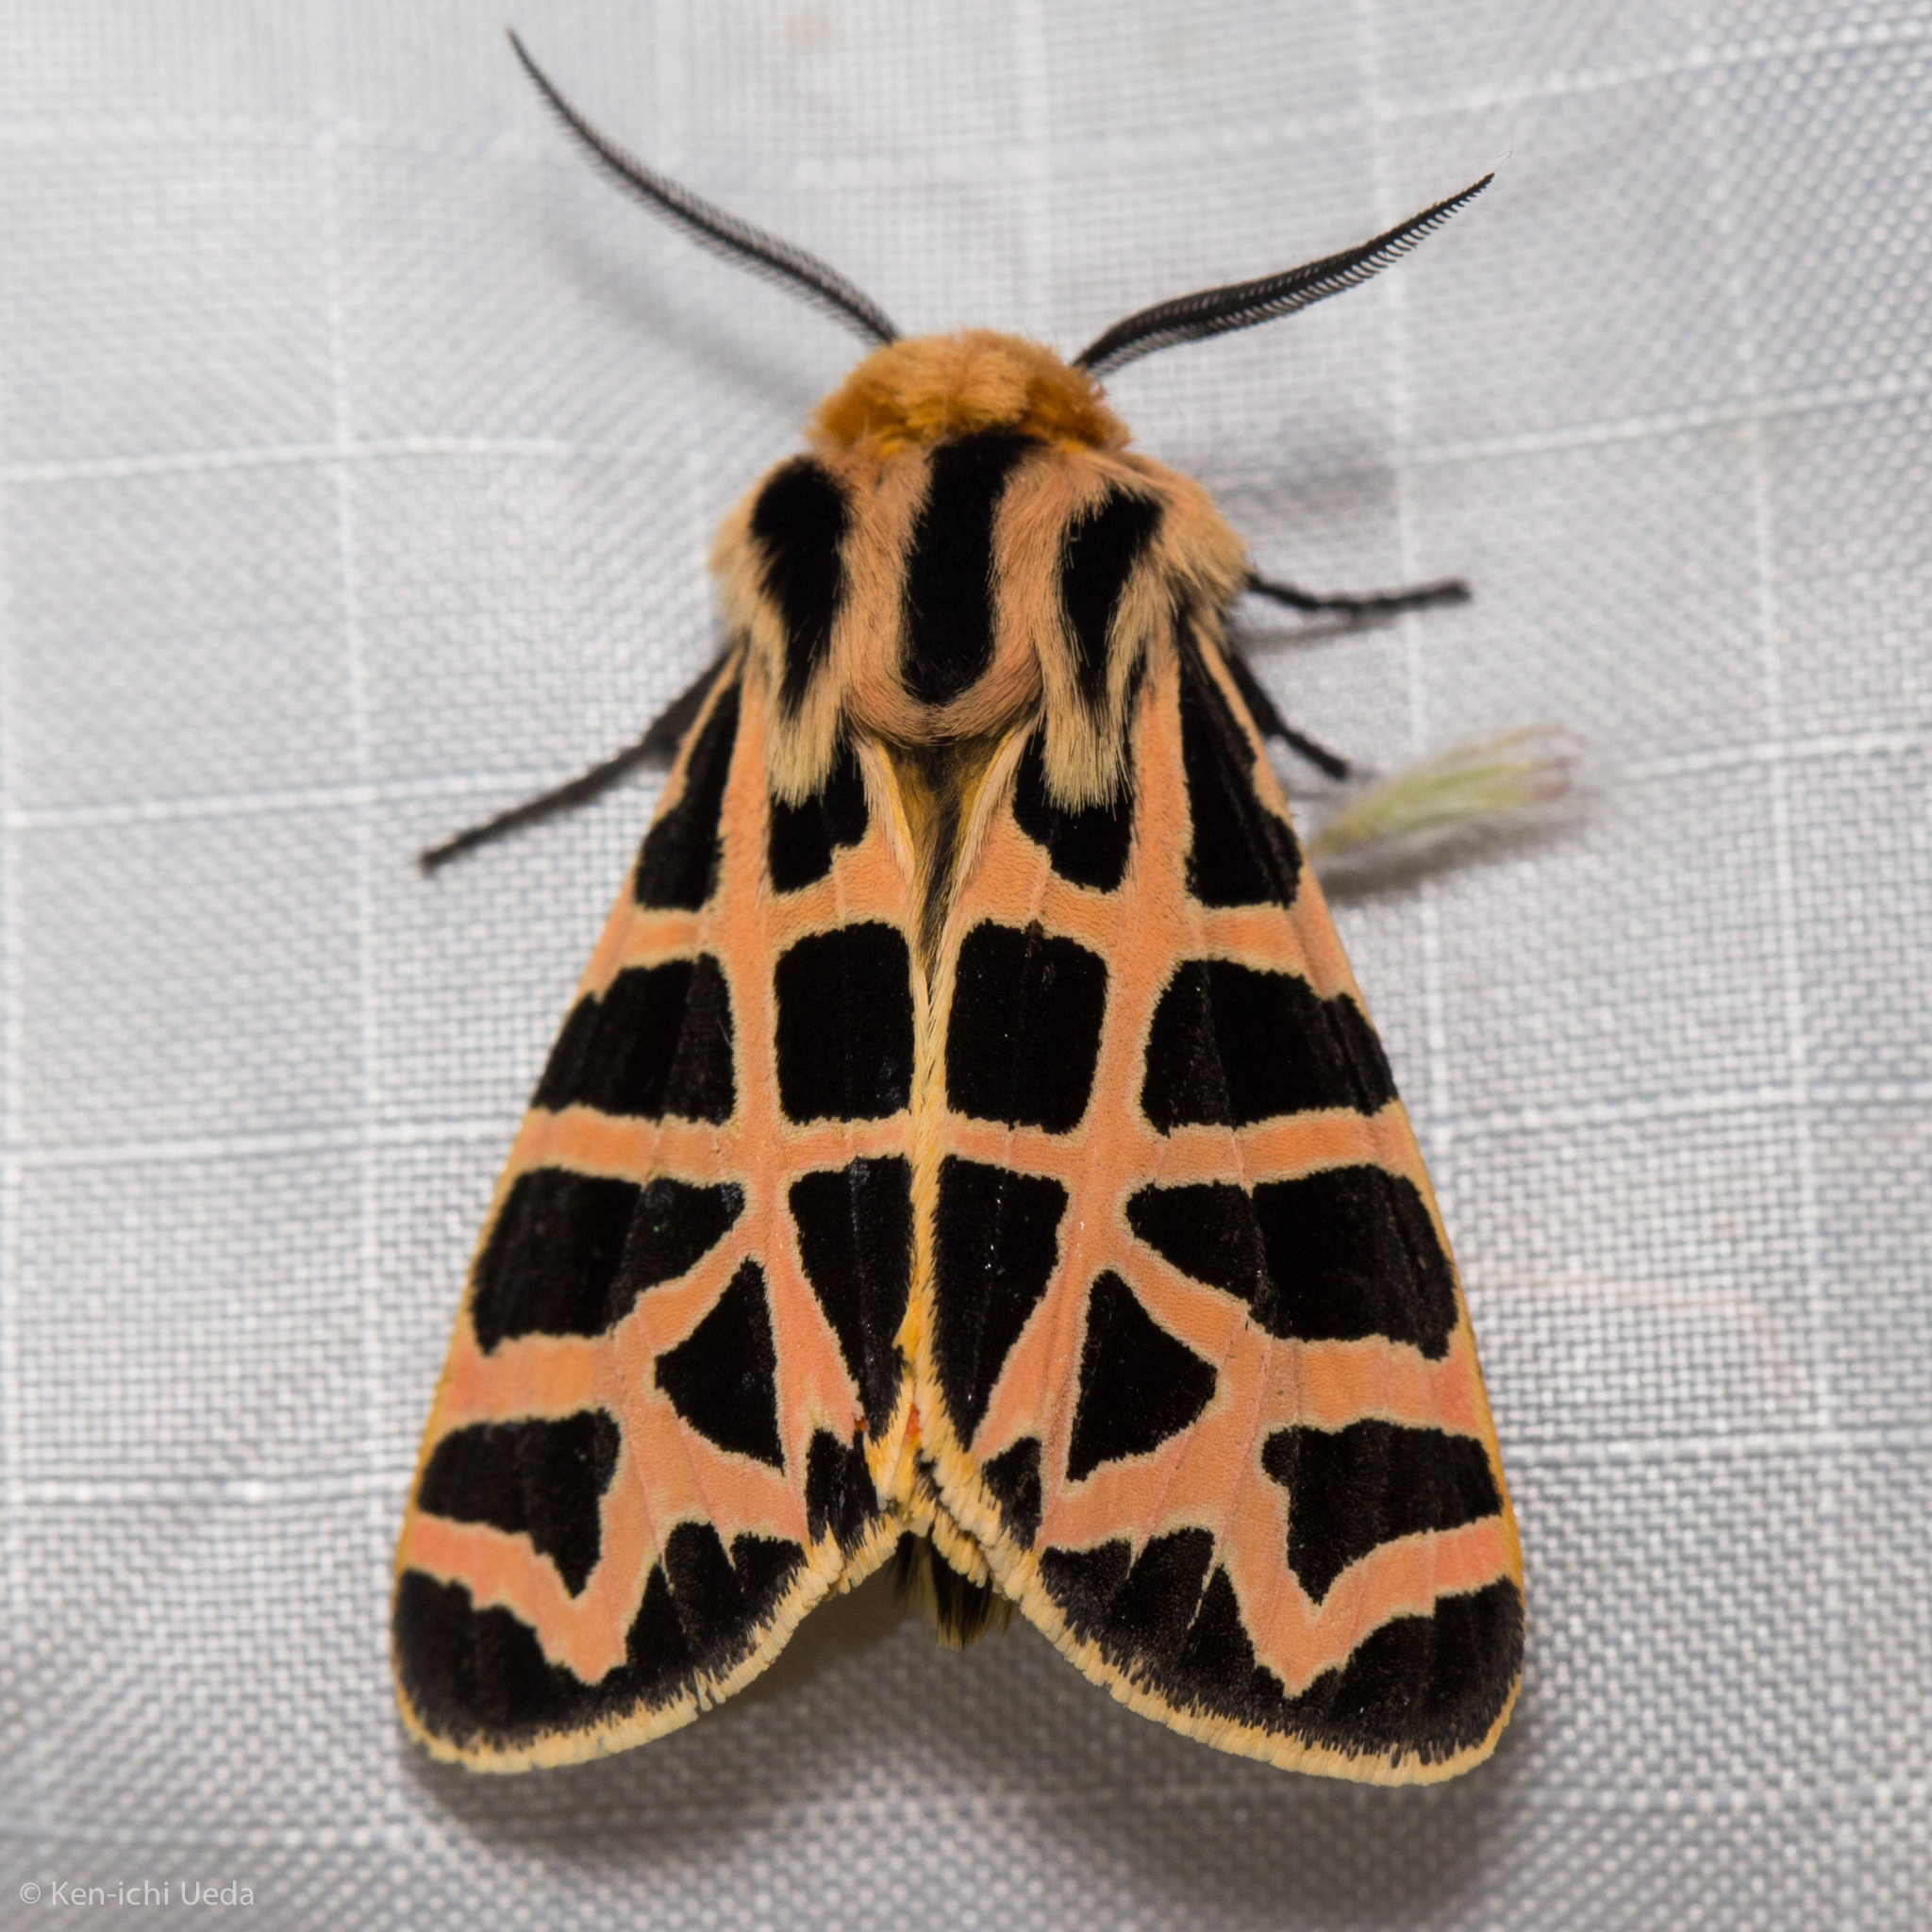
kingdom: Animalia
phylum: Arthropoda
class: Insecta
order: Lepidoptera
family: Erebidae
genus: Apantesis
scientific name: Apantesis
